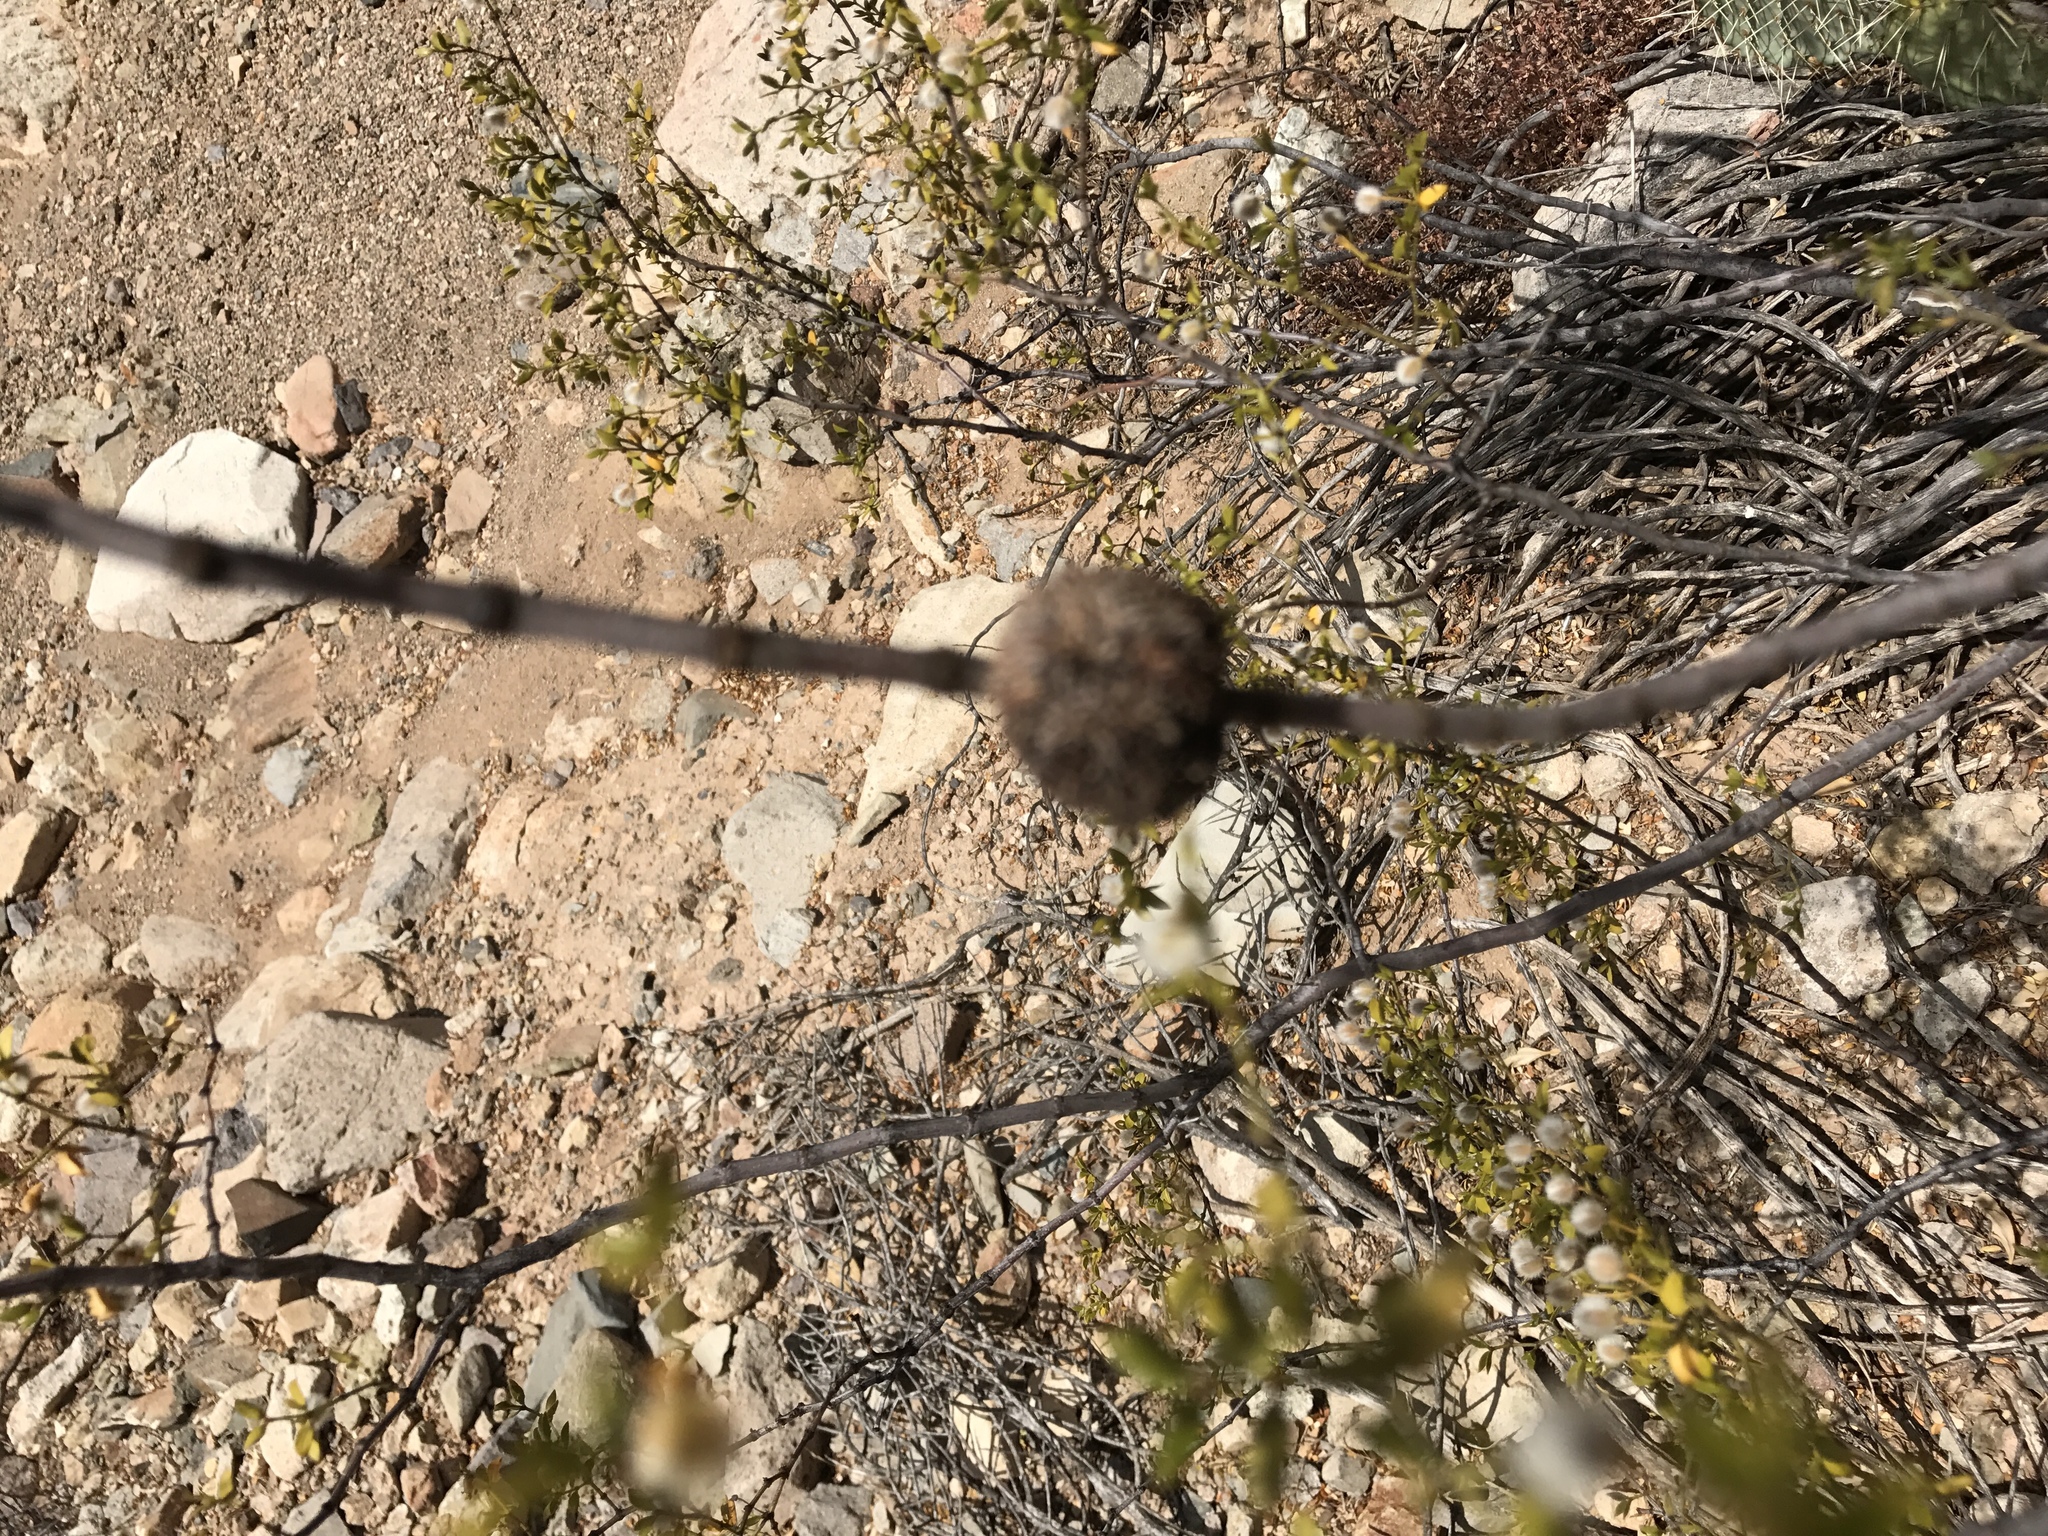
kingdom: Animalia
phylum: Arthropoda
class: Insecta
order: Diptera
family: Cecidomyiidae
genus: Asphondylia
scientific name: Asphondylia auripila
